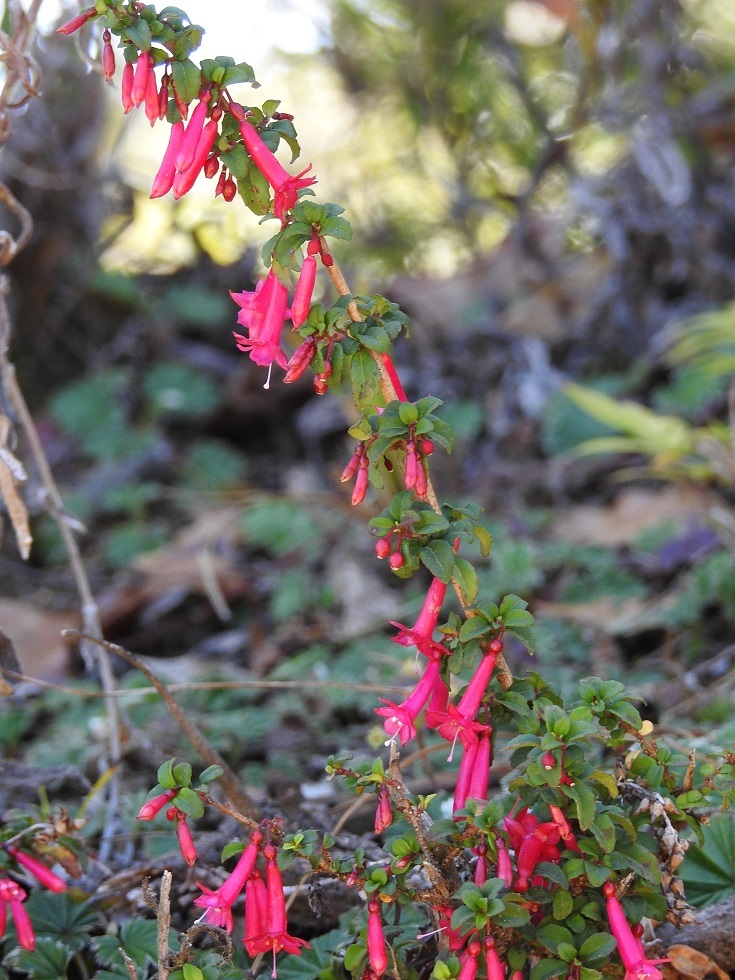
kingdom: Plantae
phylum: Tracheophyta
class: Magnoliopsida
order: Myrtales
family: Onagraceae
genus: Fuchsia
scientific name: Fuchsia microphylla
